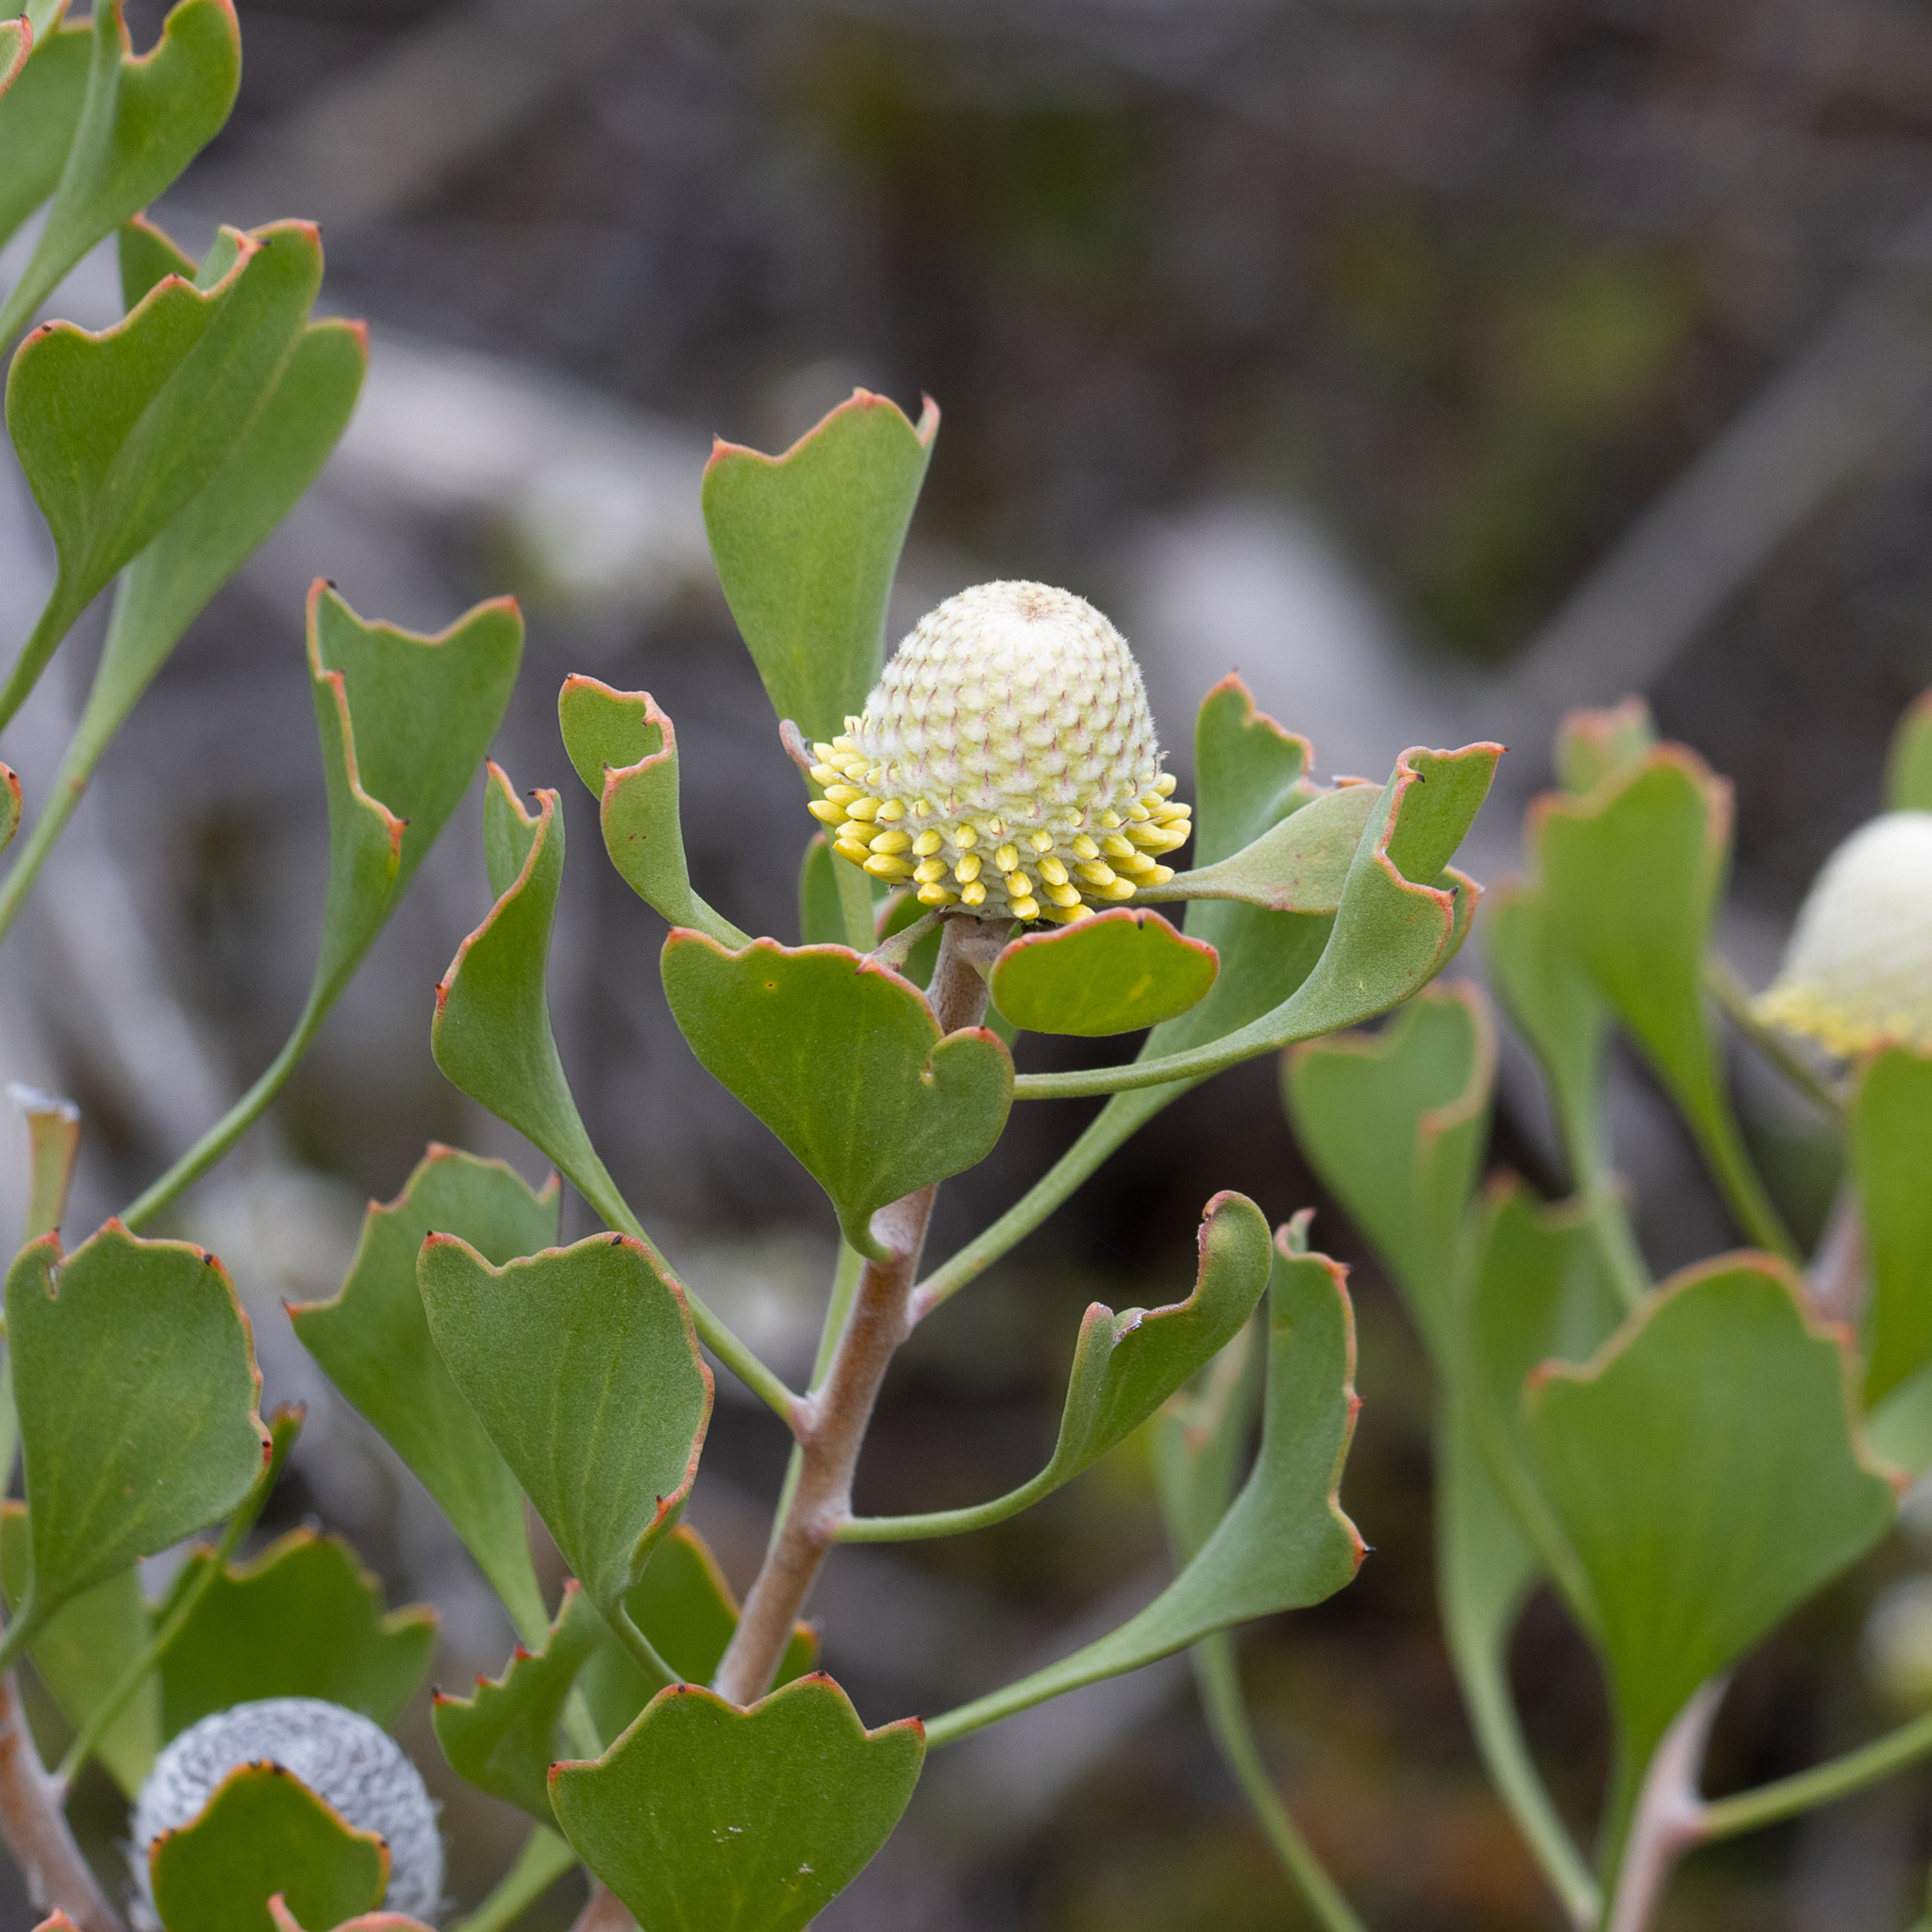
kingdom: Plantae
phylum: Tracheophyta
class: Magnoliopsida
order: Proteales
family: Proteaceae
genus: Isopogon
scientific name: Isopogon trilobus
